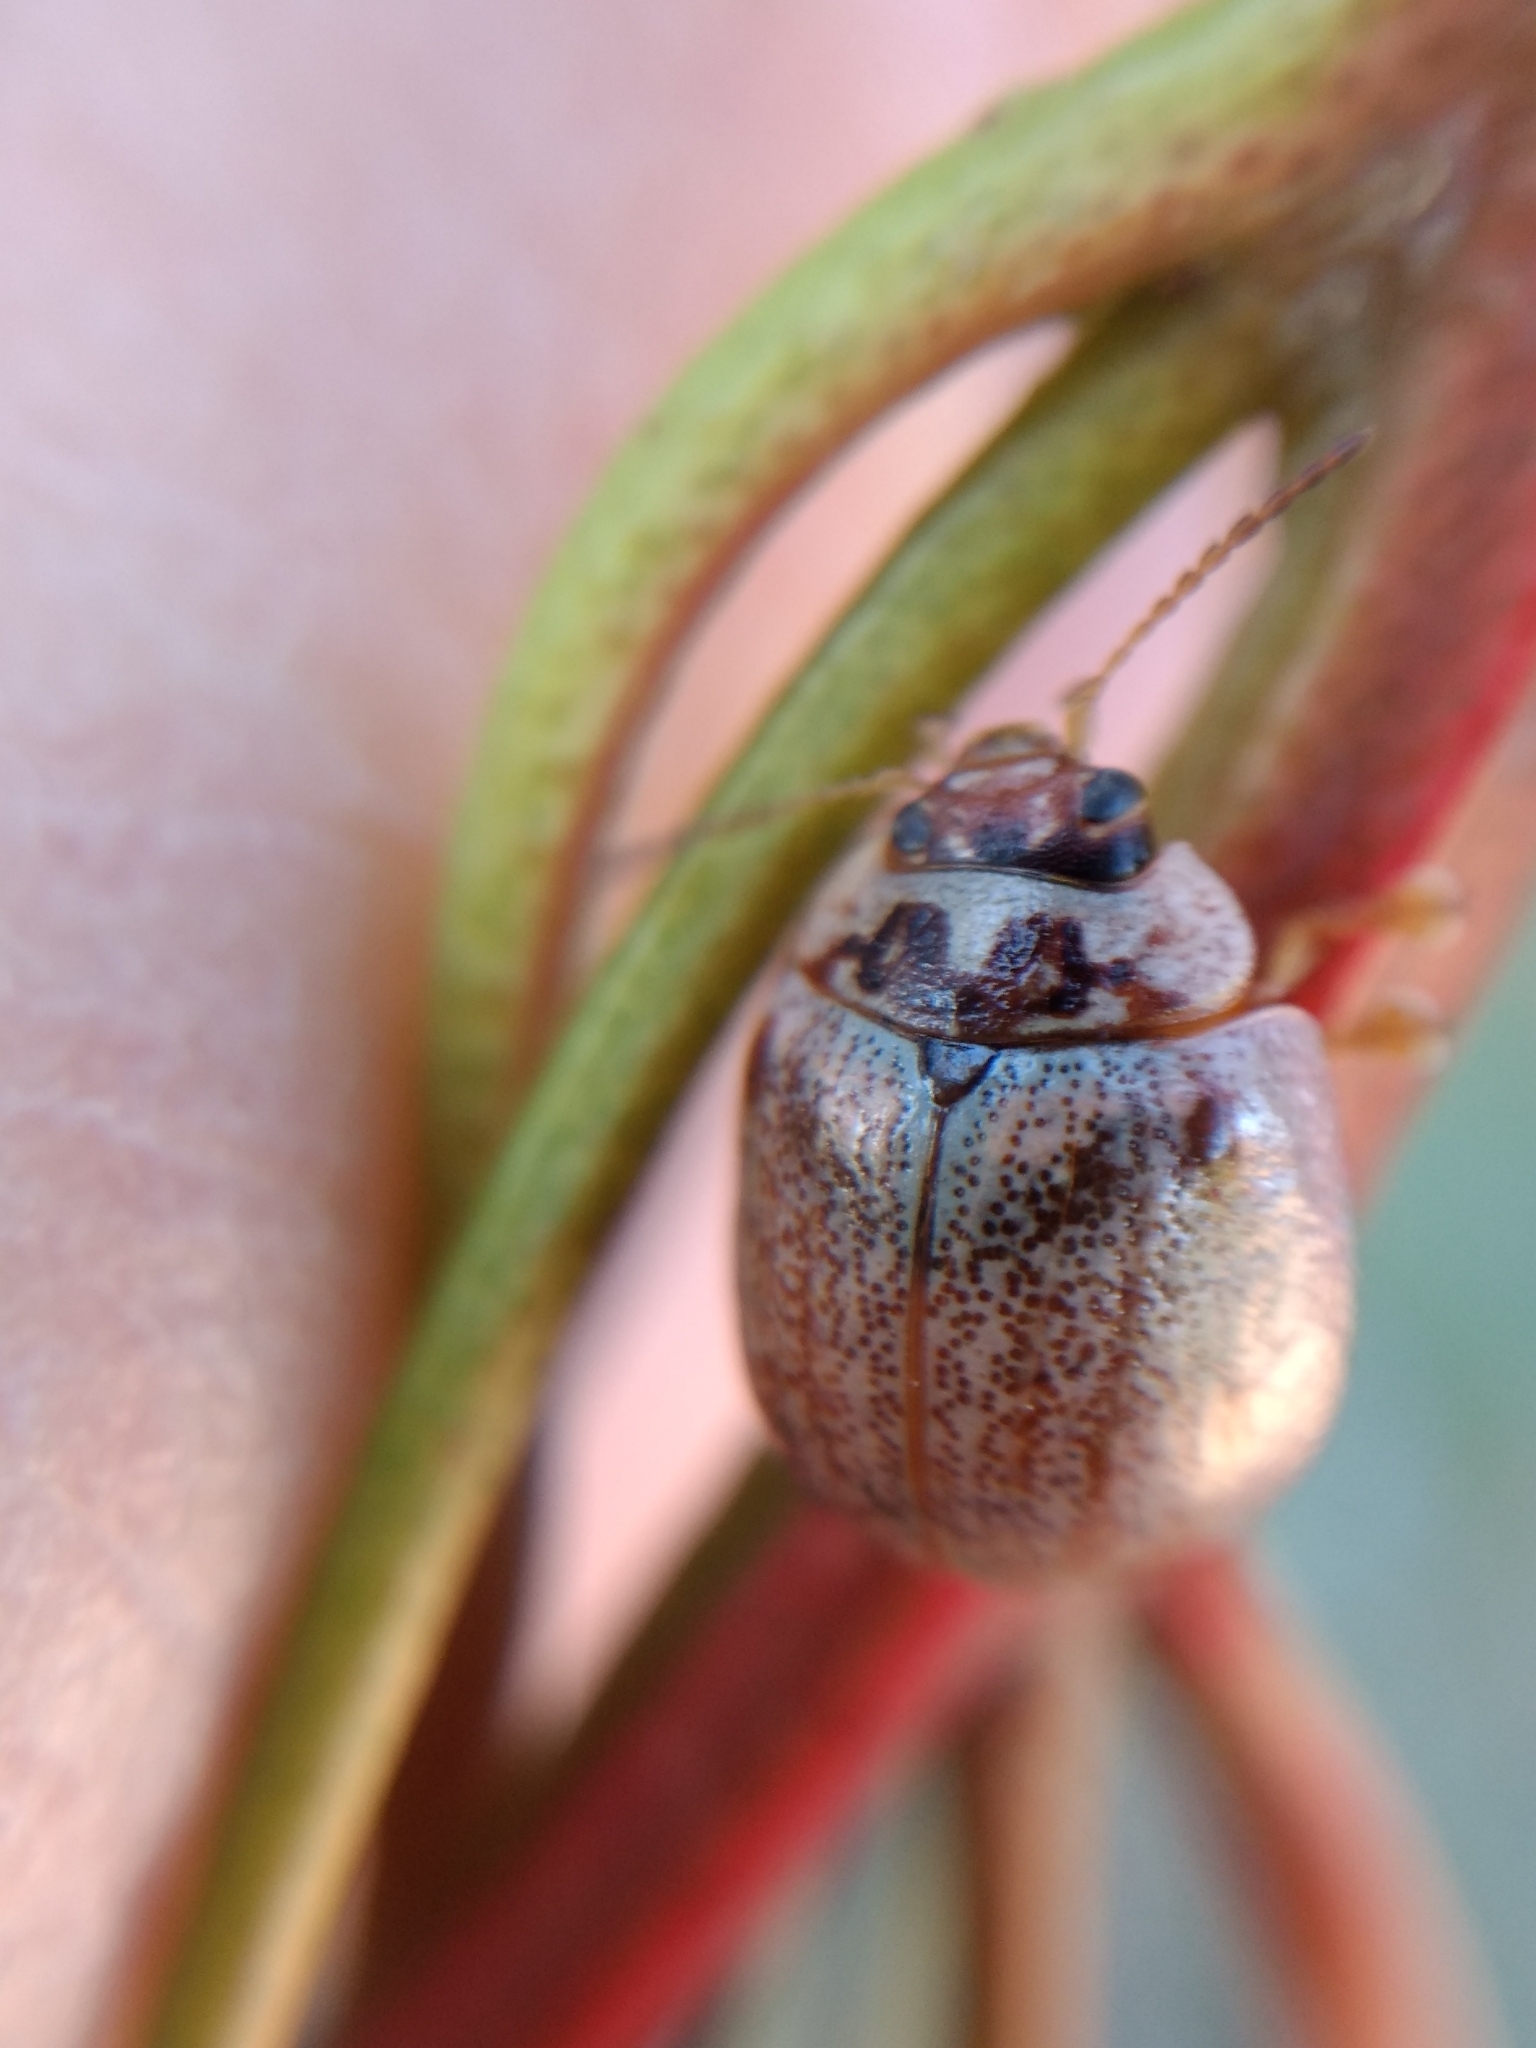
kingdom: Animalia
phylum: Arthropoda
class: Insecta
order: Coleoptera
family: Chrysomelidae
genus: Paropsisterna
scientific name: Paropsisterna m-fuscum
